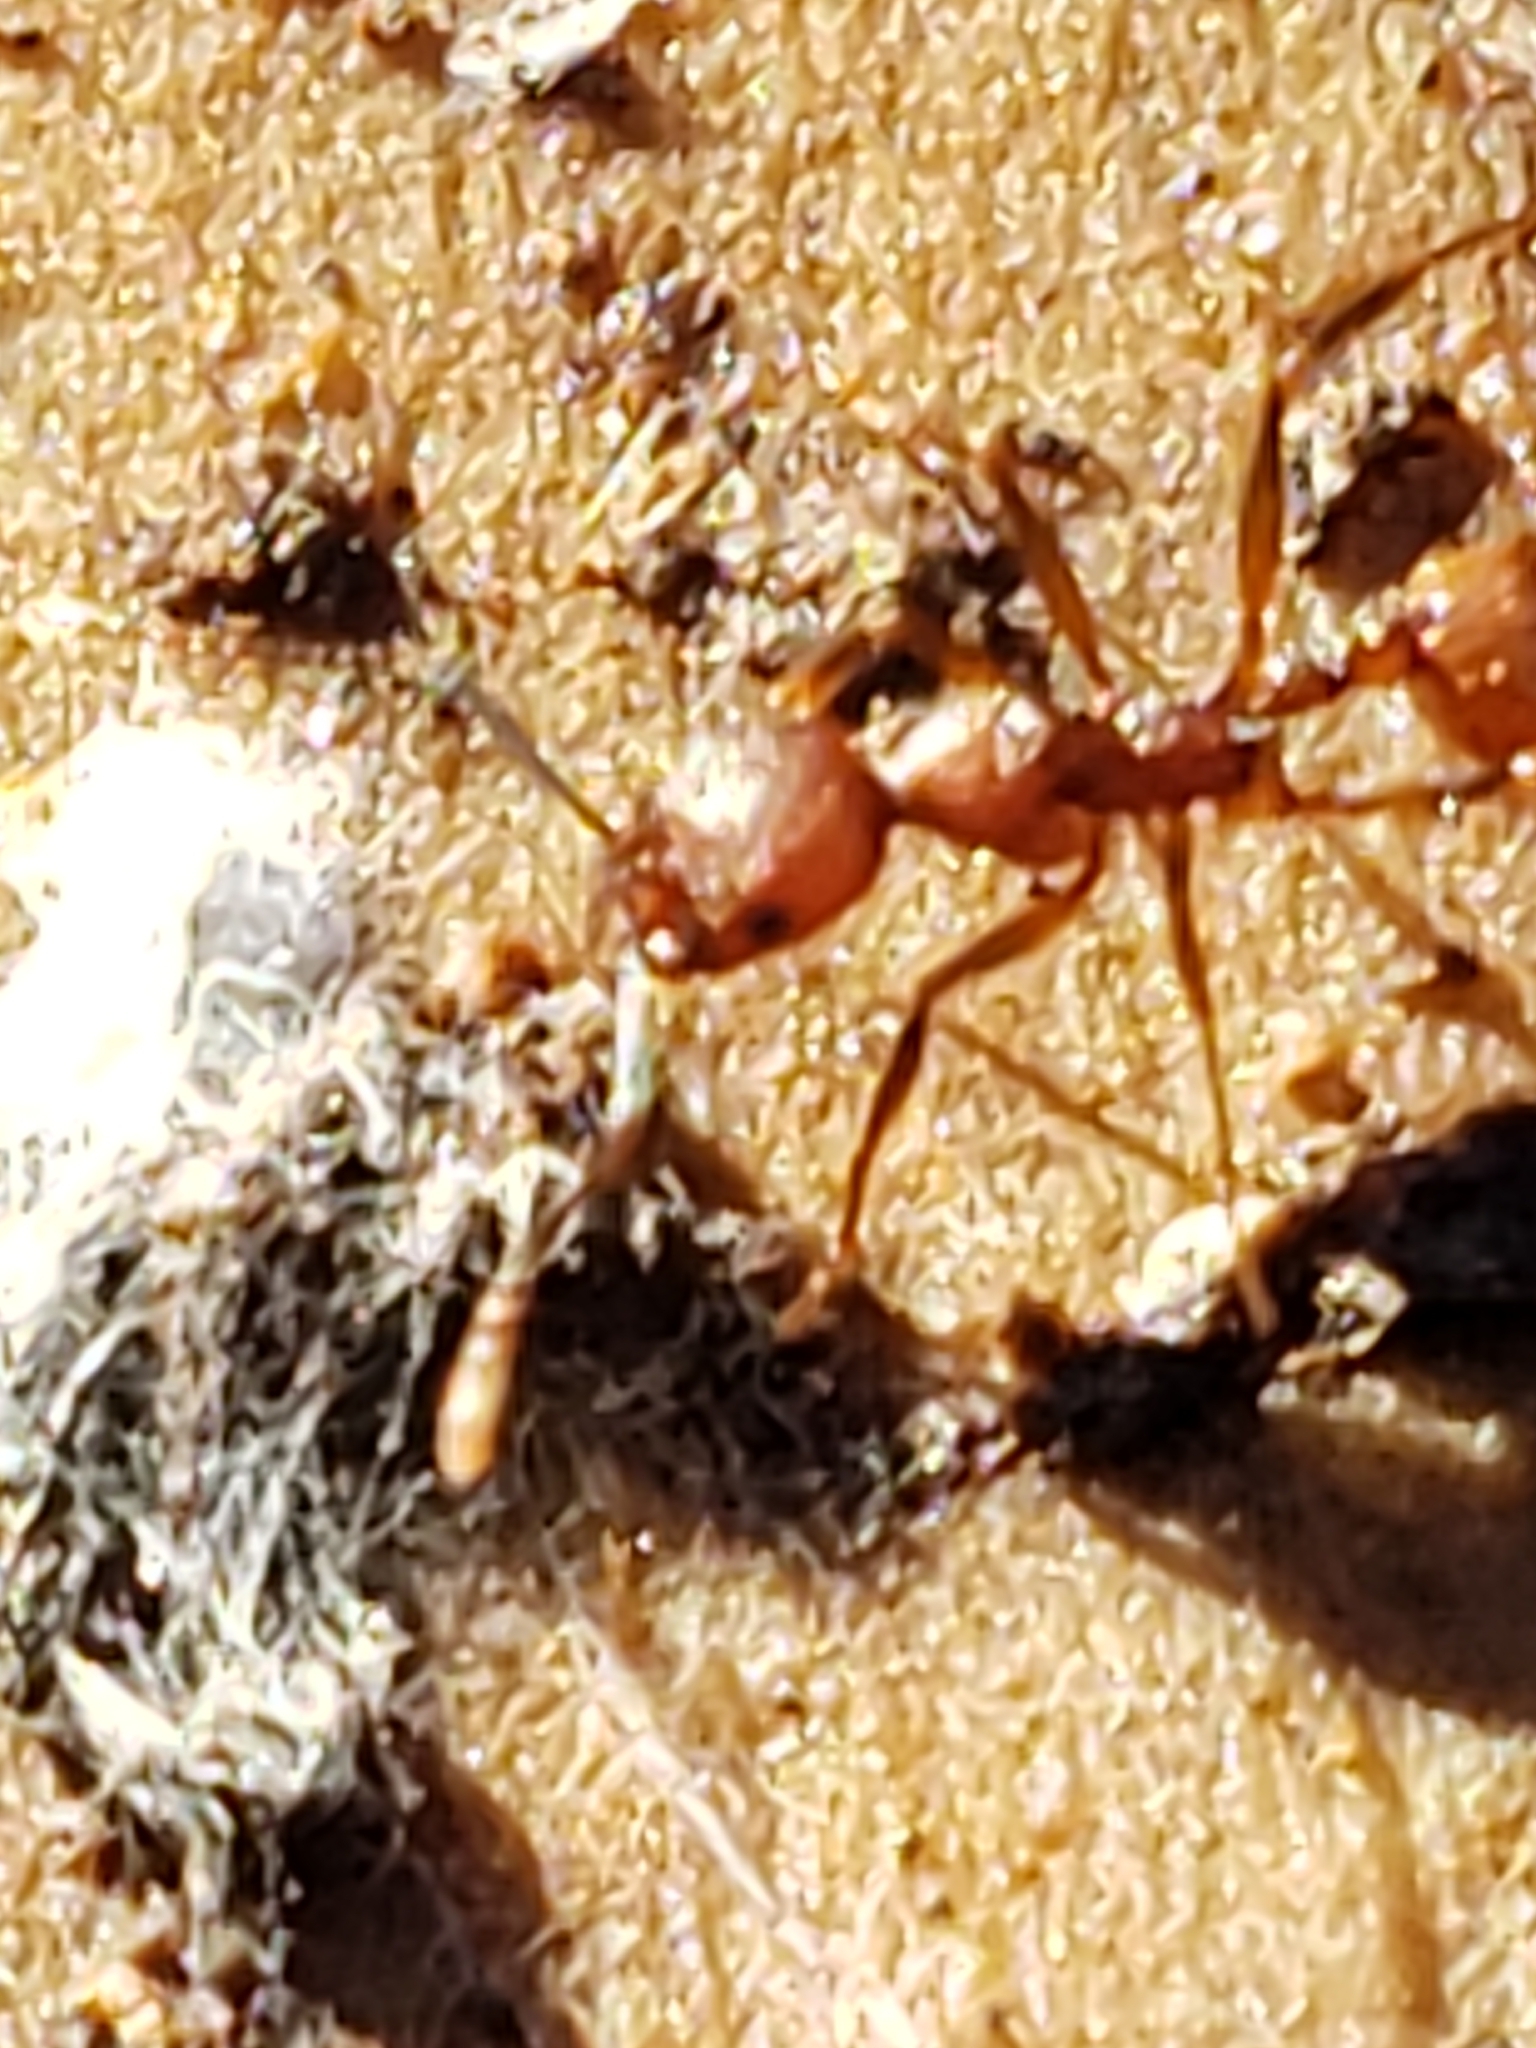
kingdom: Animalia
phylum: Arthropoda
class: Insecta
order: Hymenoptera
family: Formicidae
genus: Aphaenogaster
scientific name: Aphaenogaster tennesseensis
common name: Tennessee thread-waisted ant
